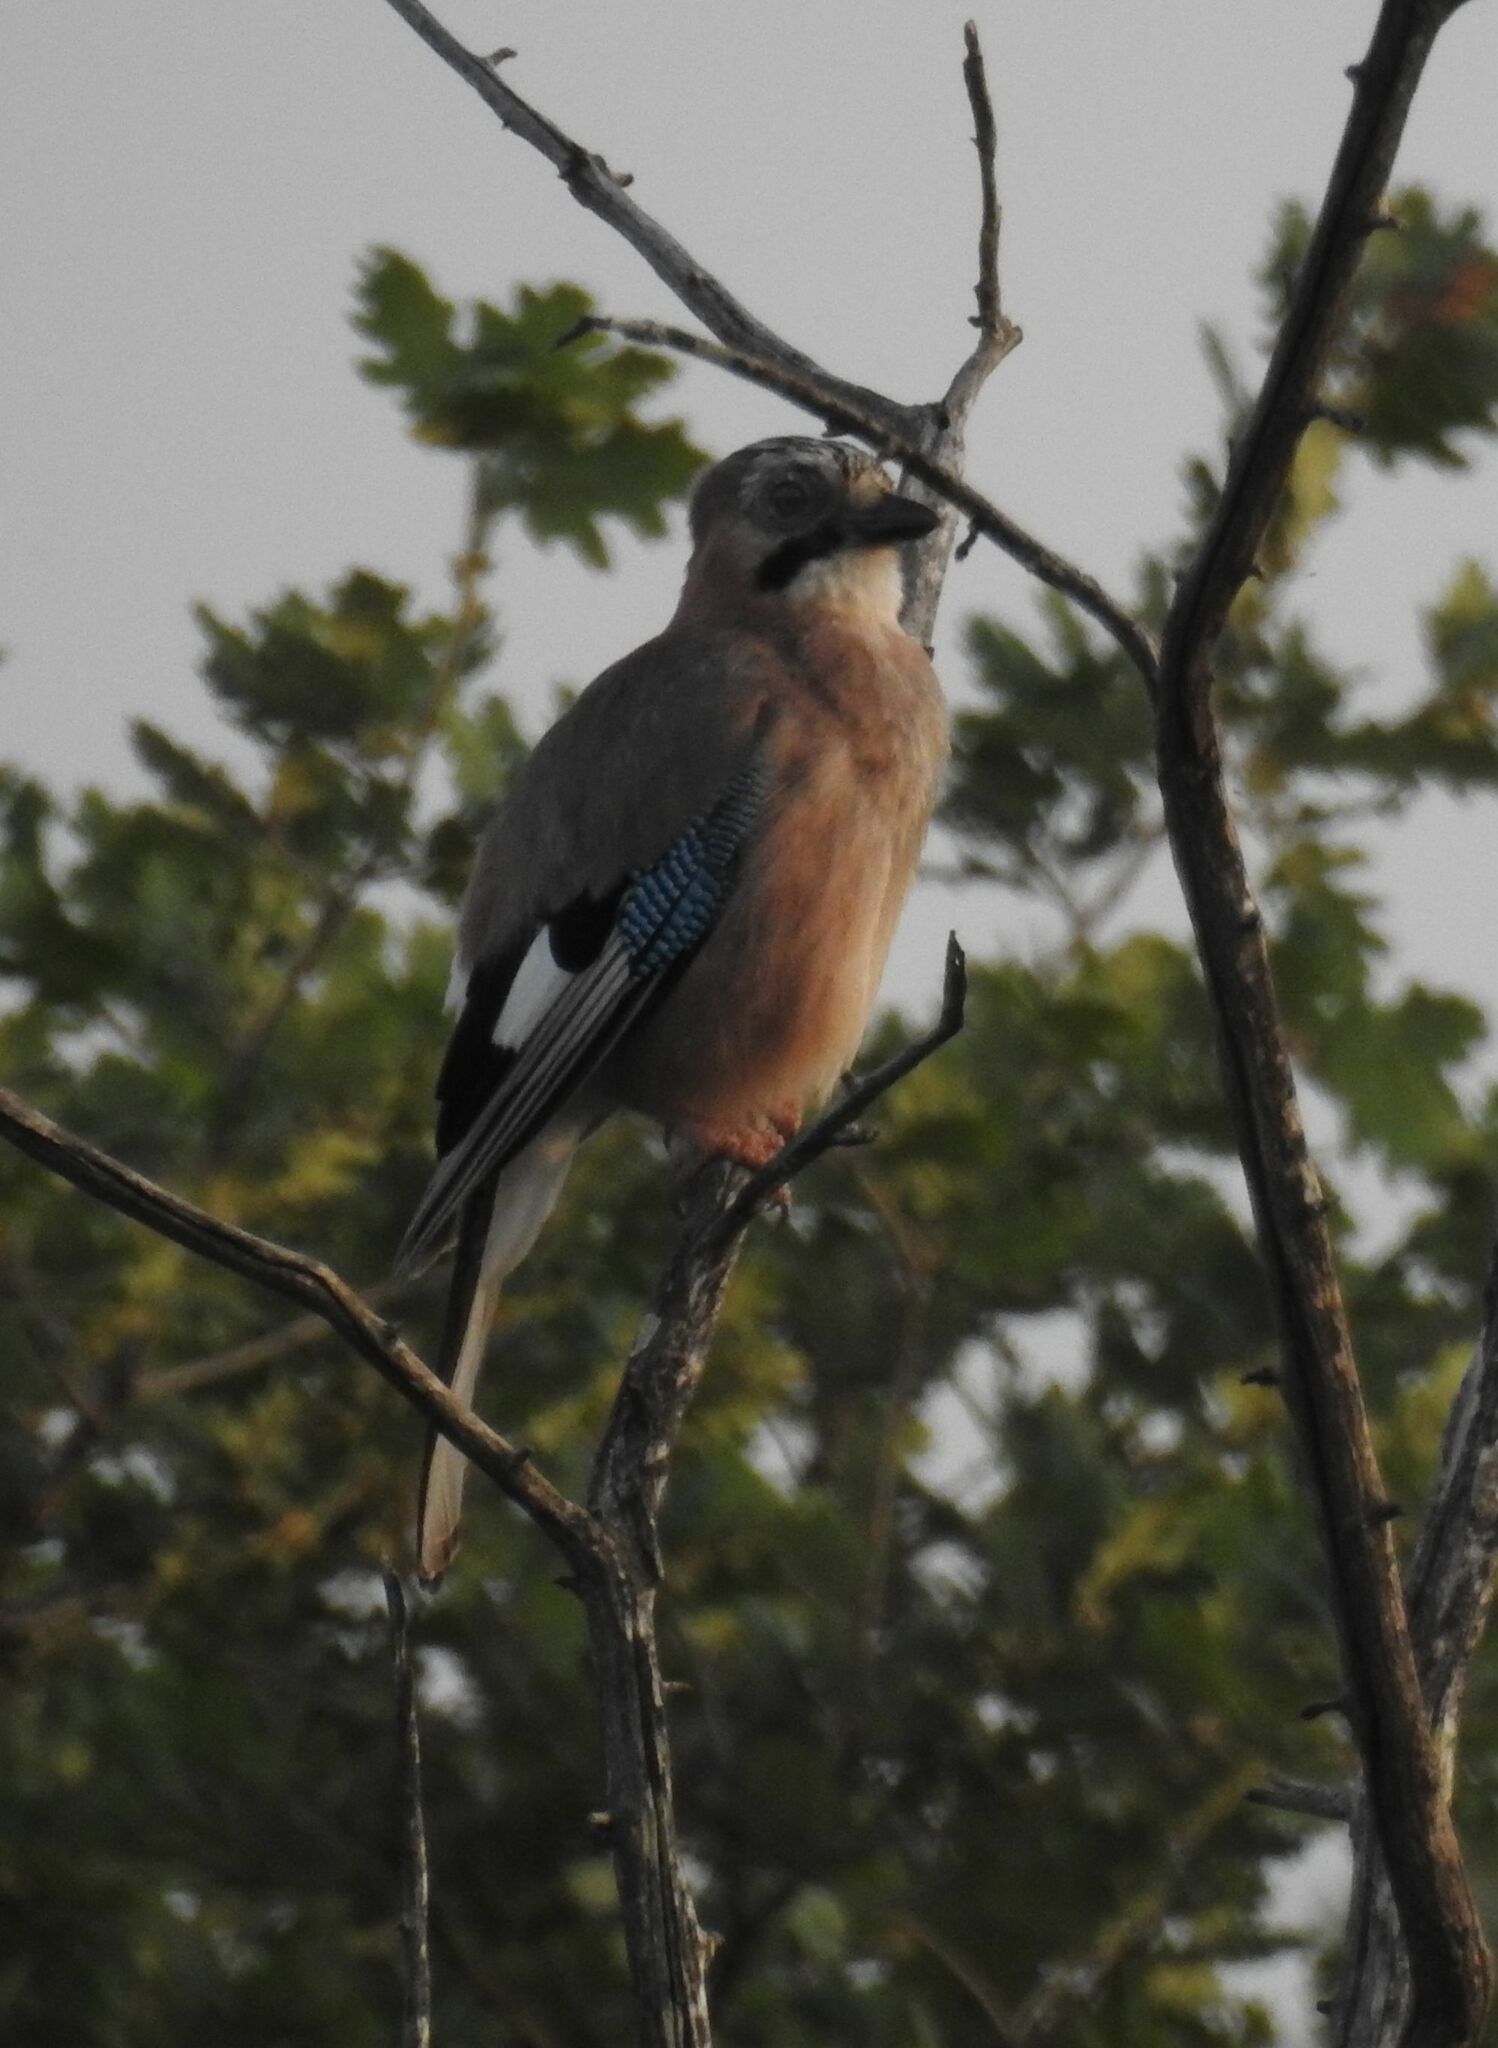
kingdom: Animalia
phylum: Chordata
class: Aves
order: Passeriformes
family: Corvidae
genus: Garrulus
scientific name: Garrulus glandarius
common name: Eurasian jay
